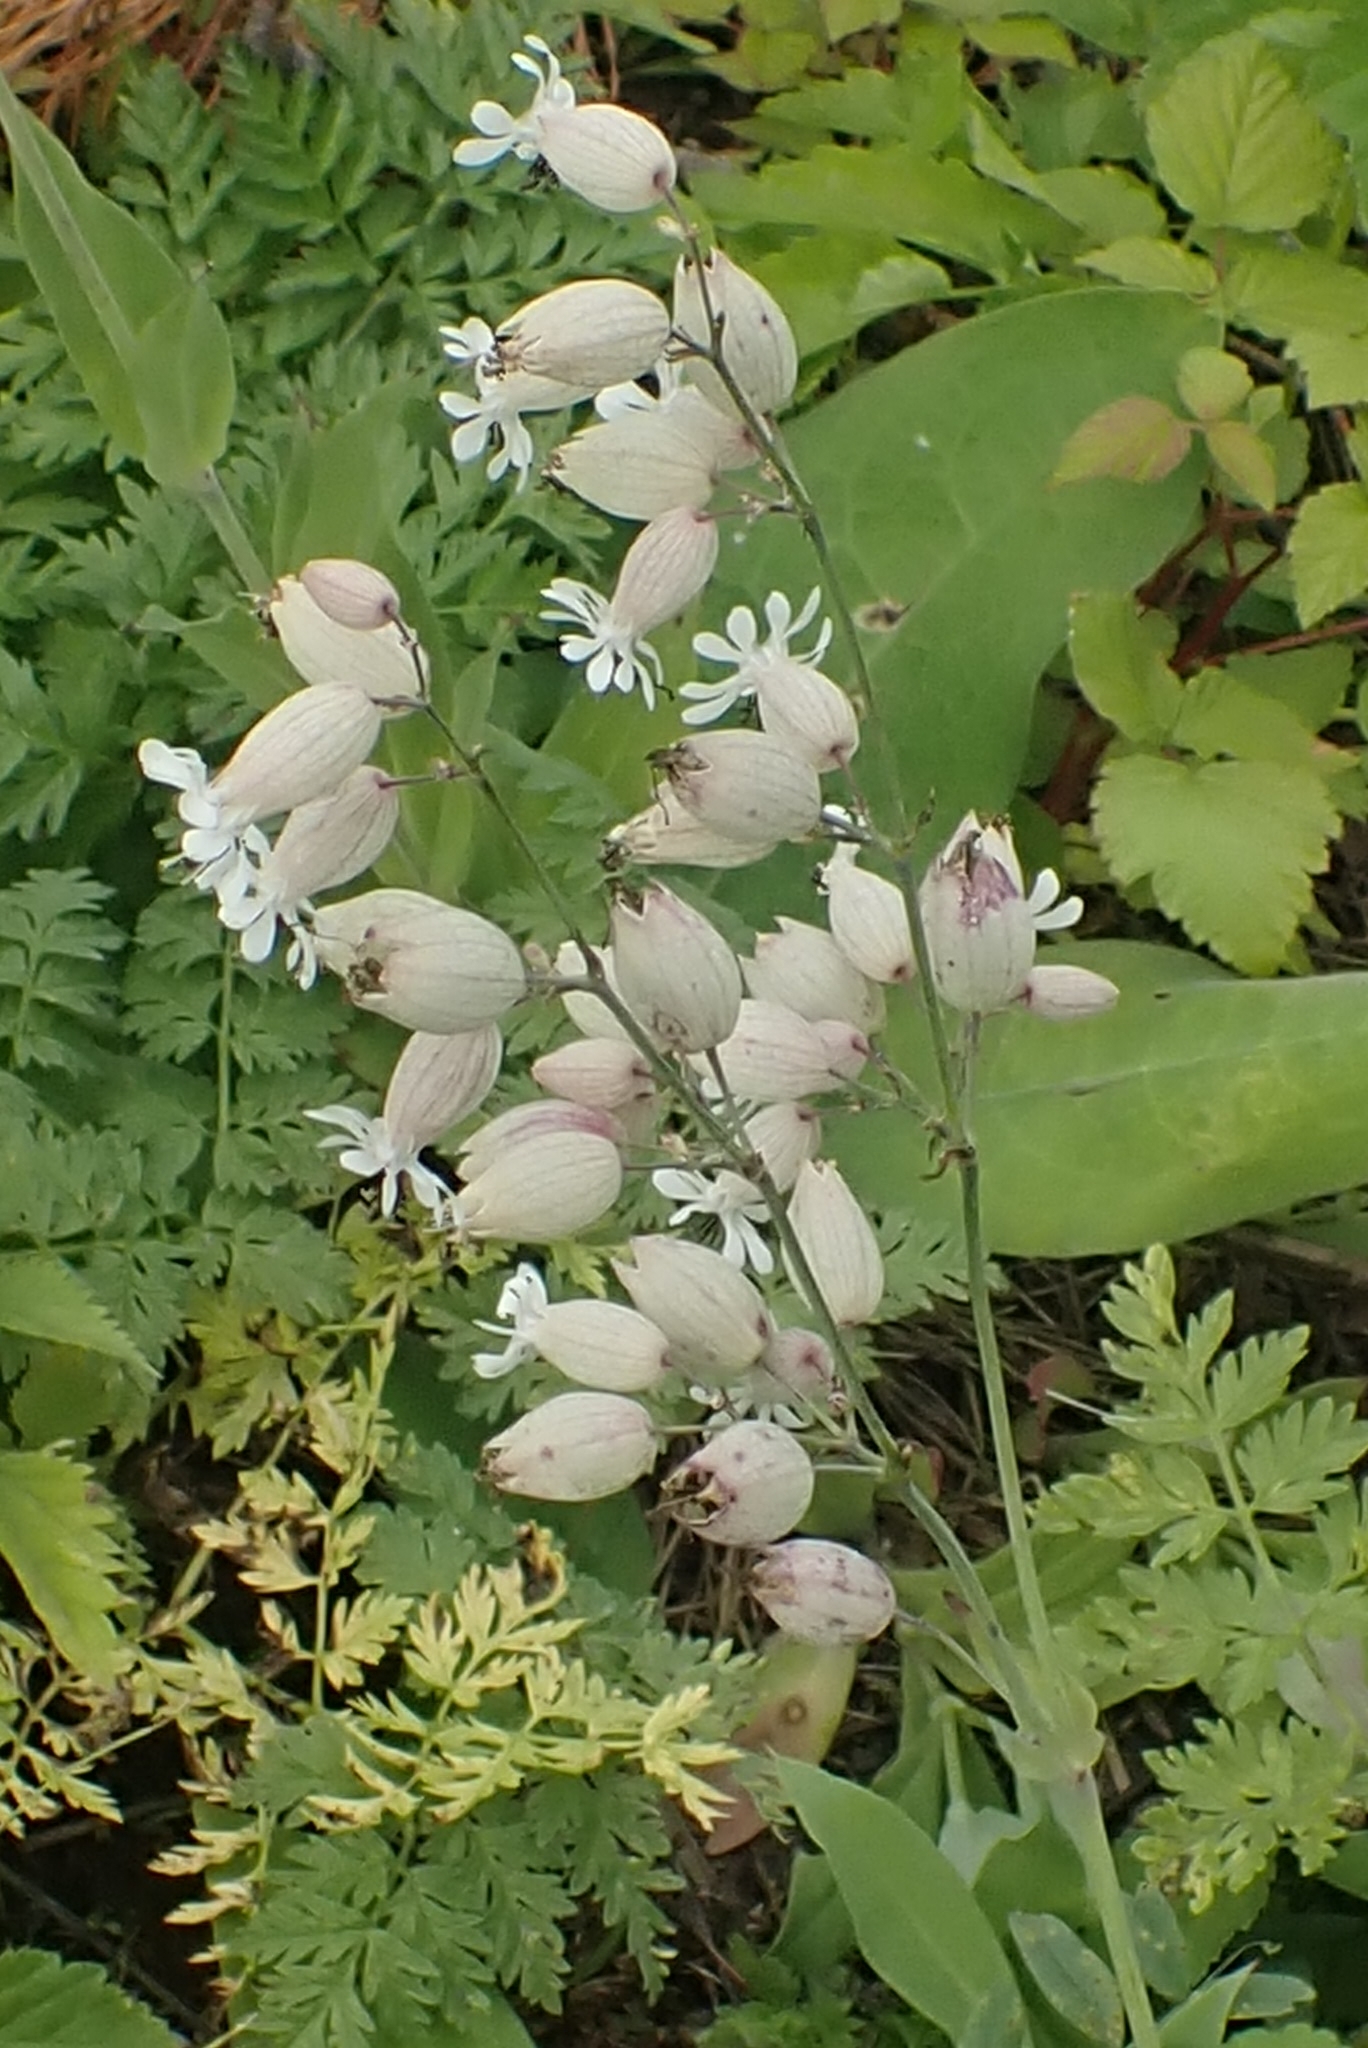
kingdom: Plantae
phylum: Tracheophyta
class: Magnoliopsida
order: Caryophyllales
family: Caryophyllaceae
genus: Silene
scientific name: Silene vulgaris
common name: Bladder campion
